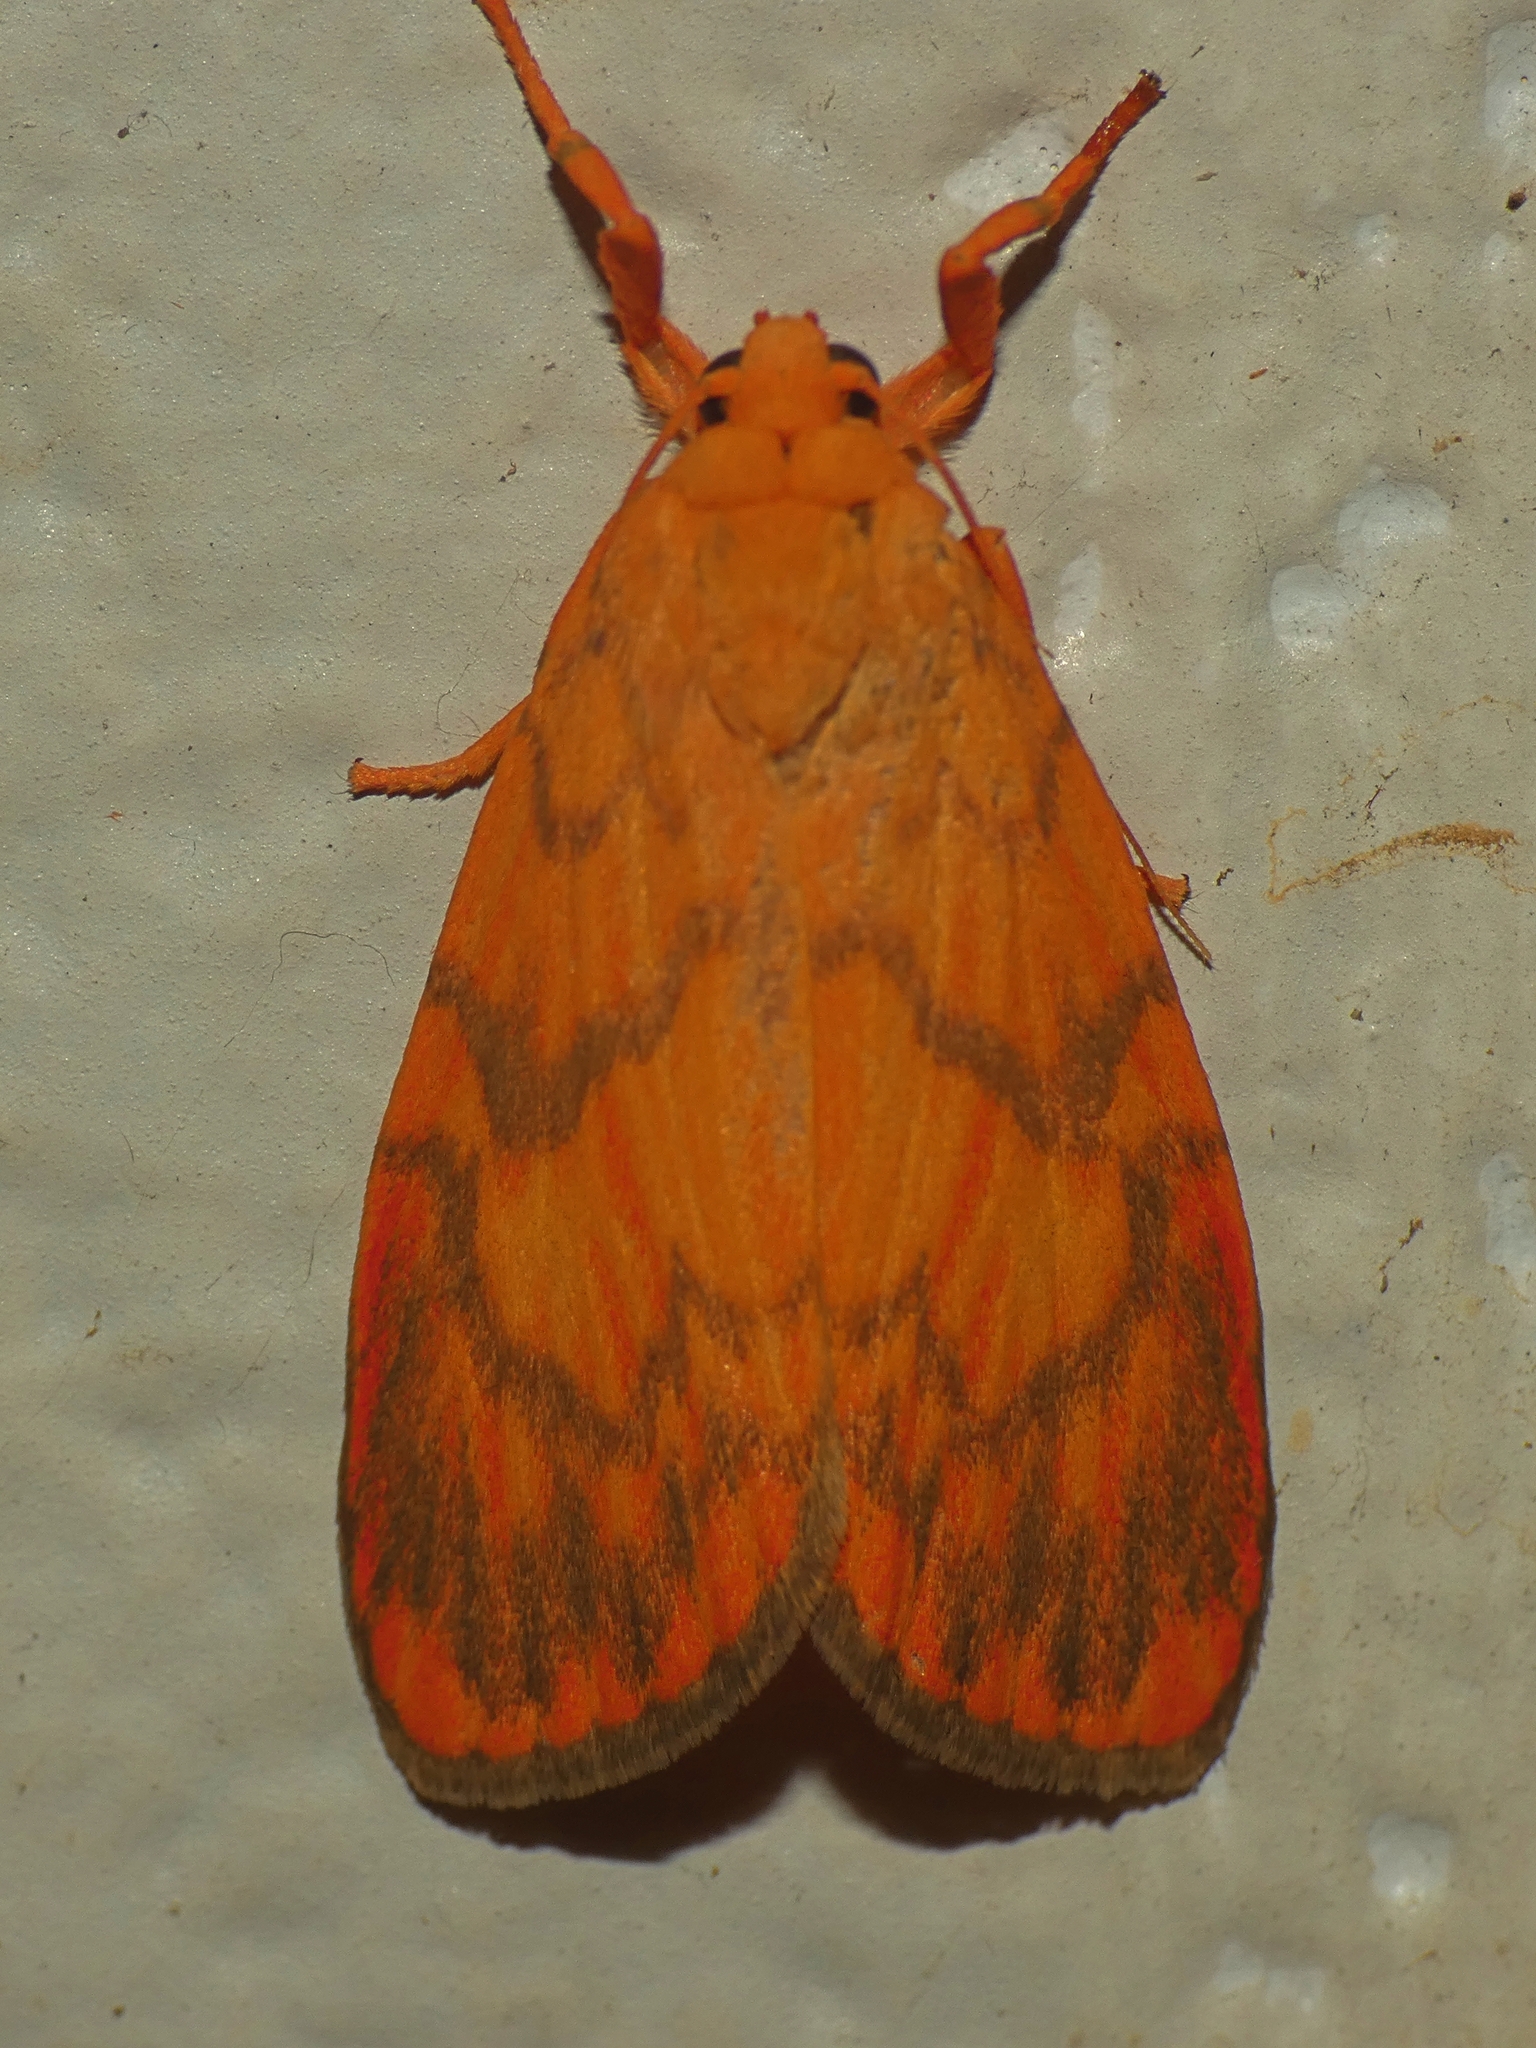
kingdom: Animalia
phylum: Arthropoda
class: Insecta
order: Lepidoptera
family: Erebidae
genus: Cyme
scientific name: Cyme pyraula
